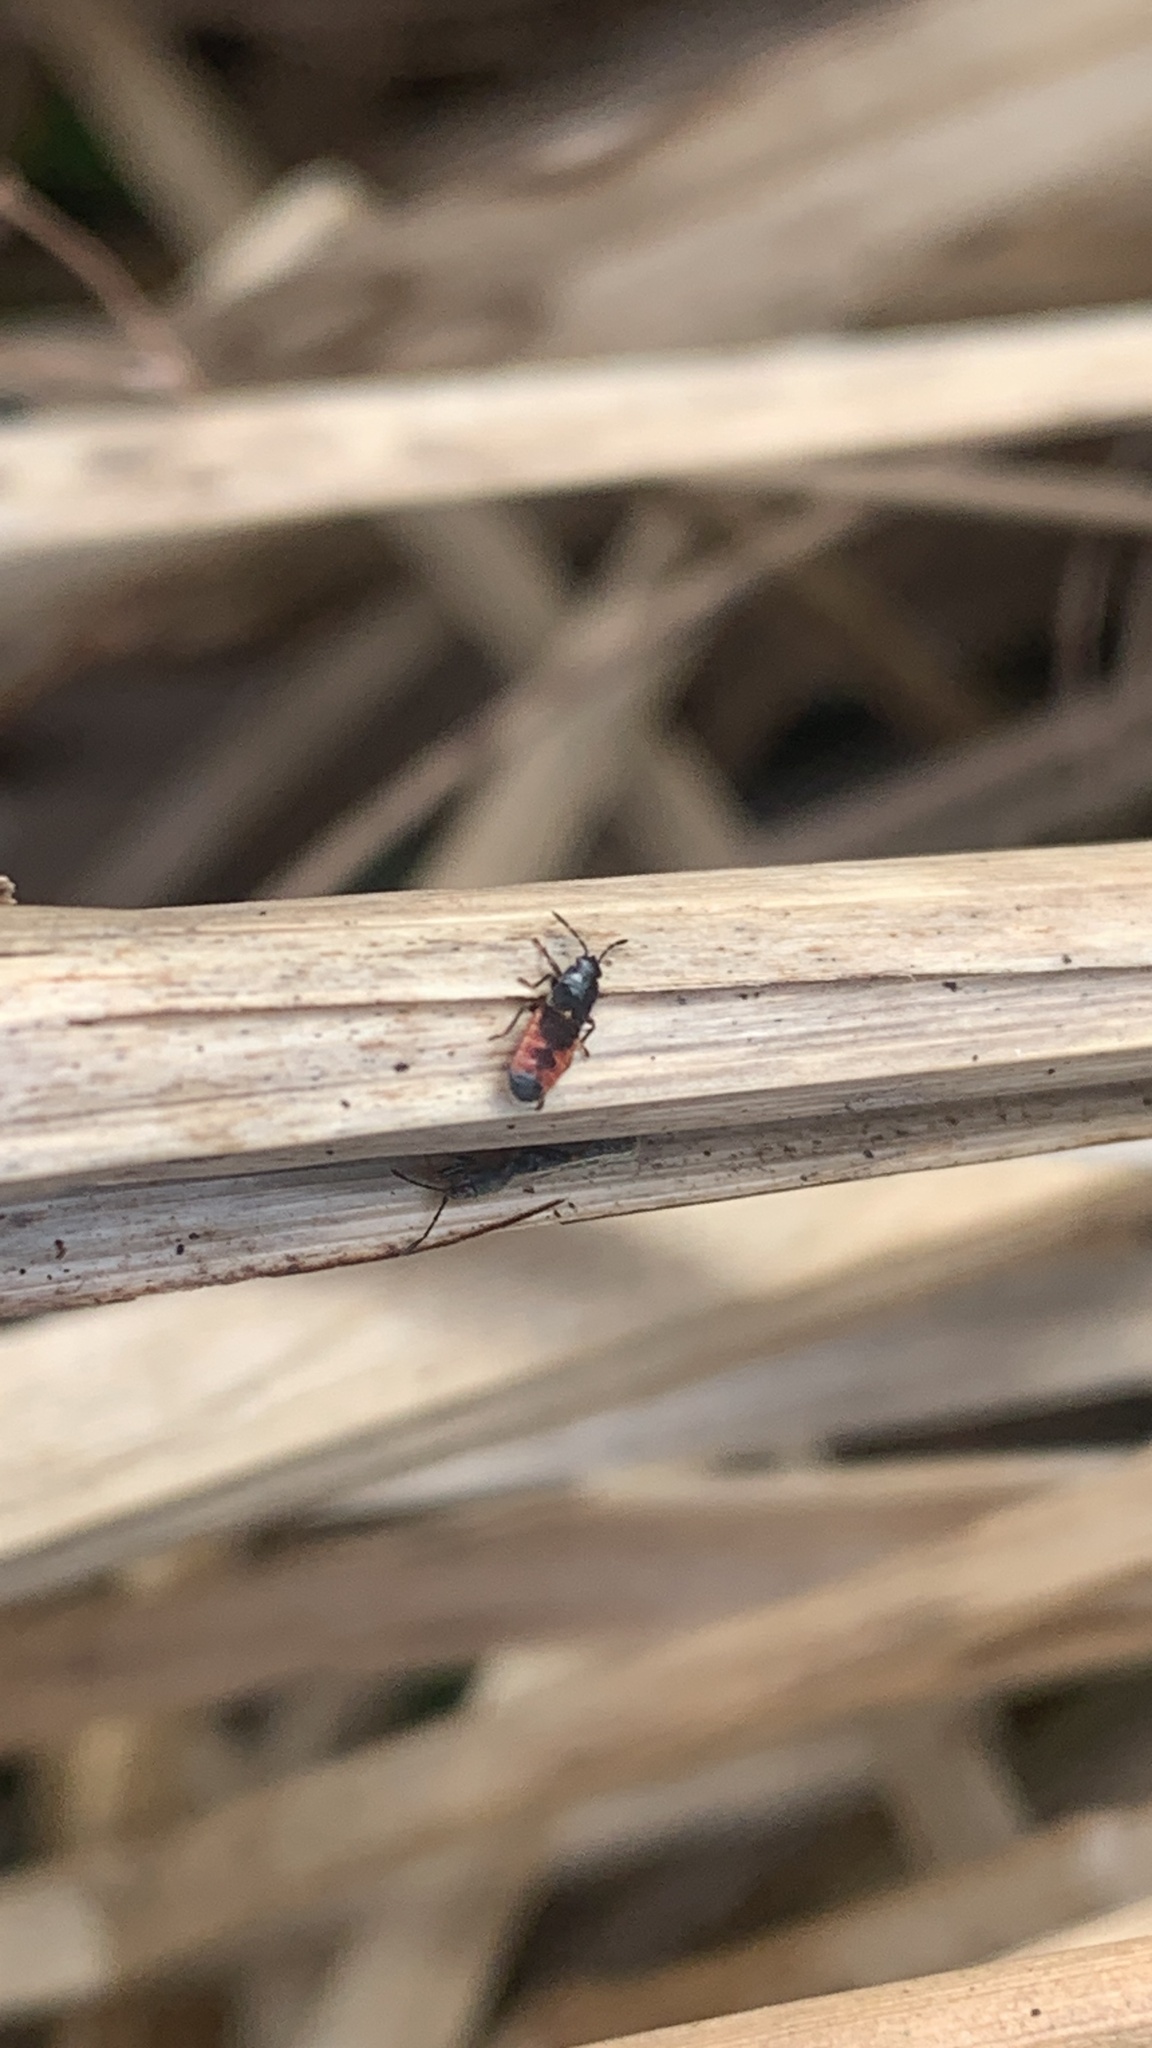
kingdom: Animalia
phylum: Arthropoda
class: Insecta
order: Hemiptera
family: Blissidae
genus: Ischnodemus
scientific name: Ischnodemus sabuleti
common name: European cinchbug
